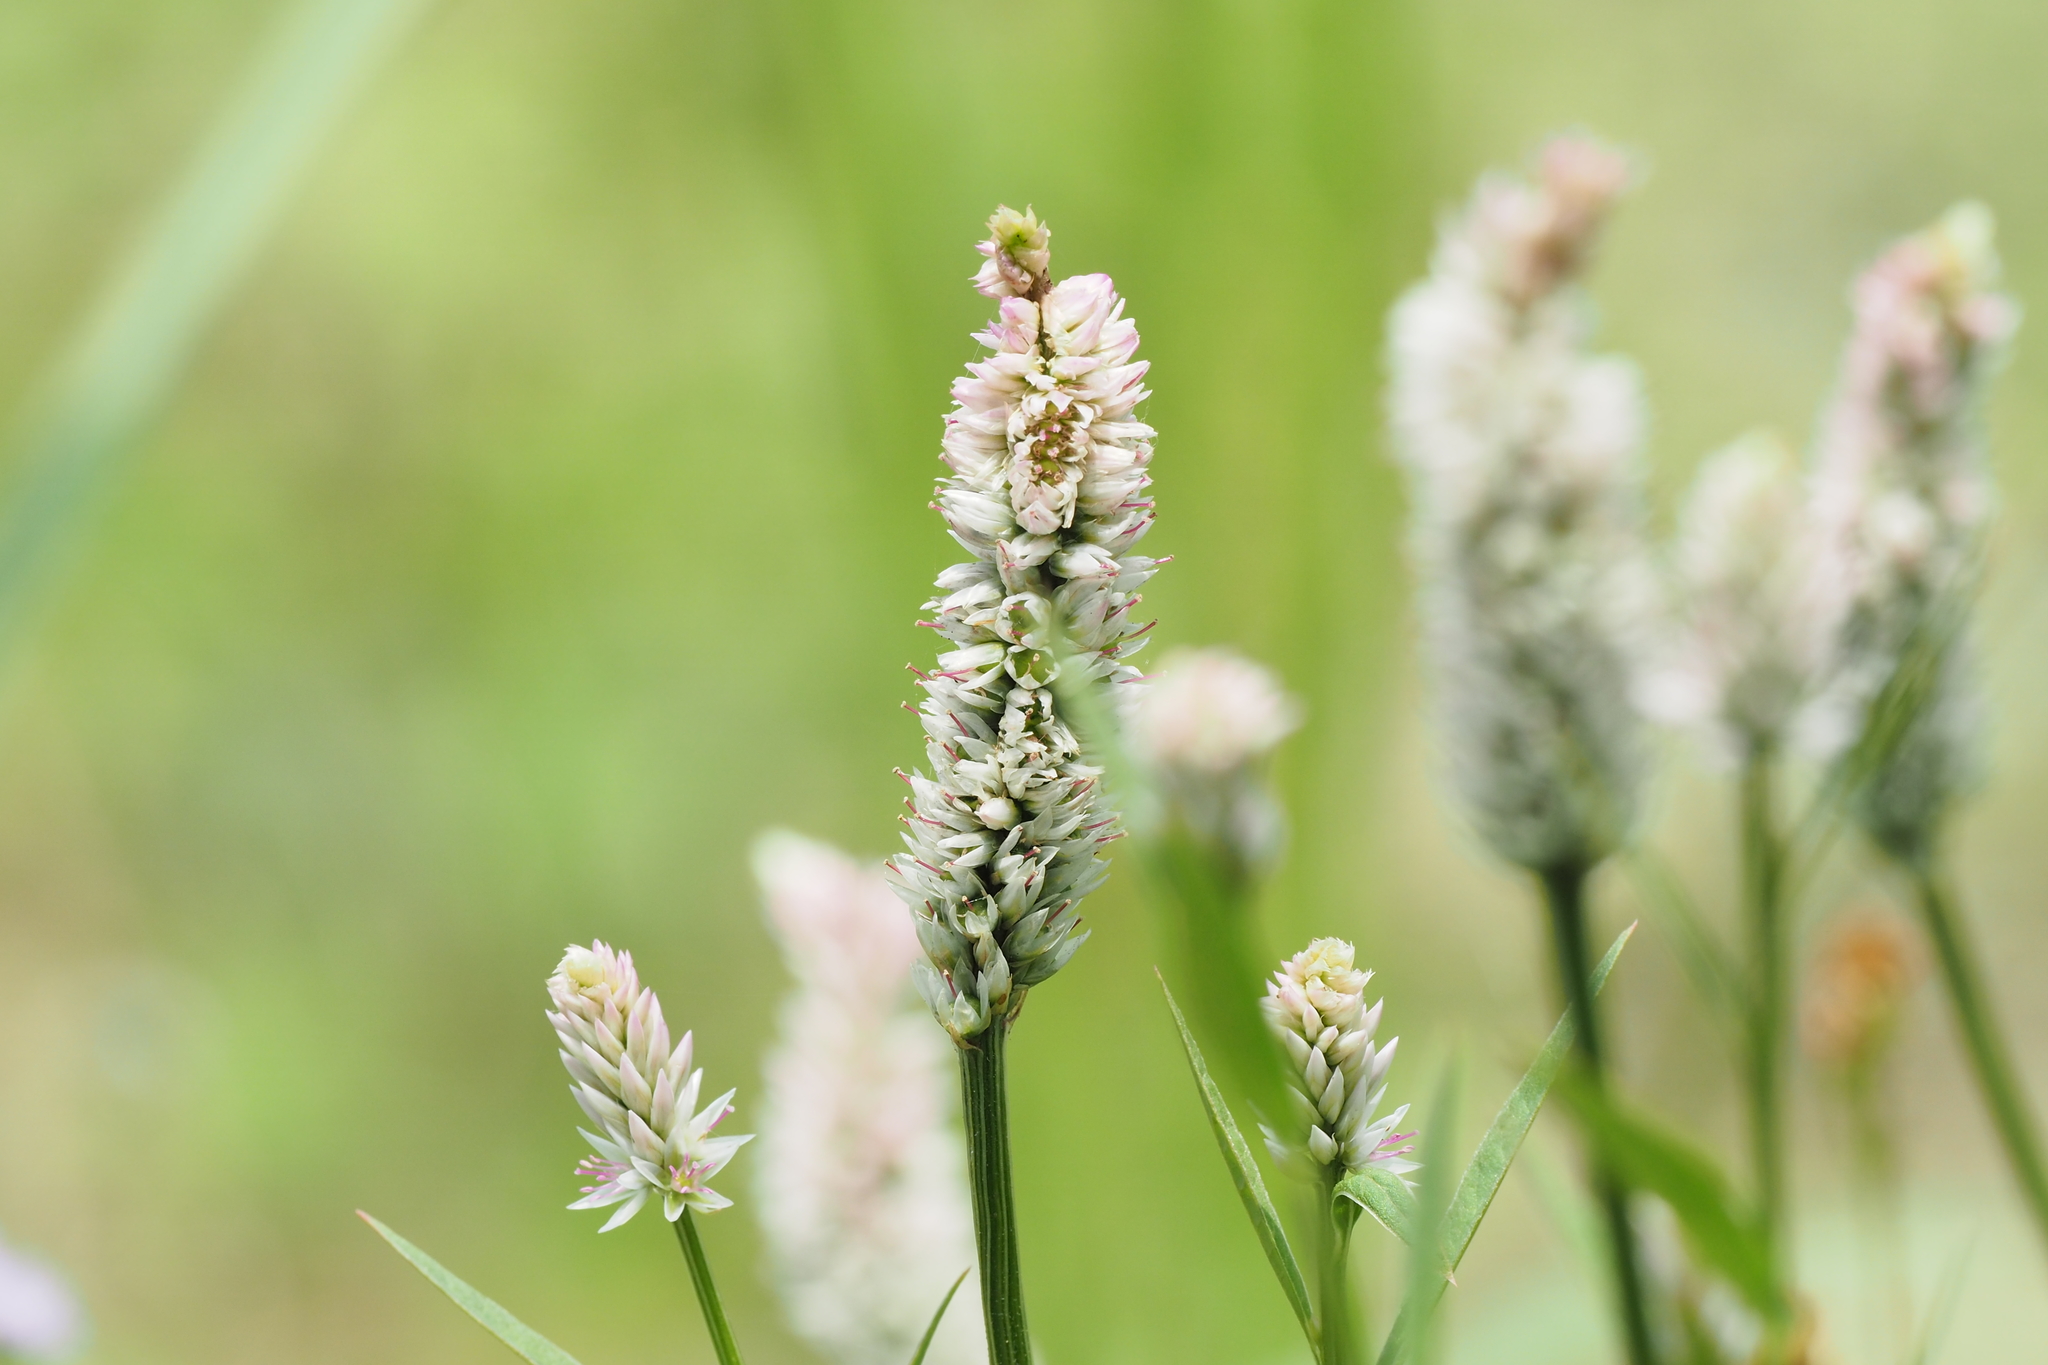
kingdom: Plantae
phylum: Tracheophyta
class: Magnoliopsida
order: Caryophyllales
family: Amaranthaceae
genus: Celosia
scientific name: Celosia argentea
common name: Feather cockscomb
